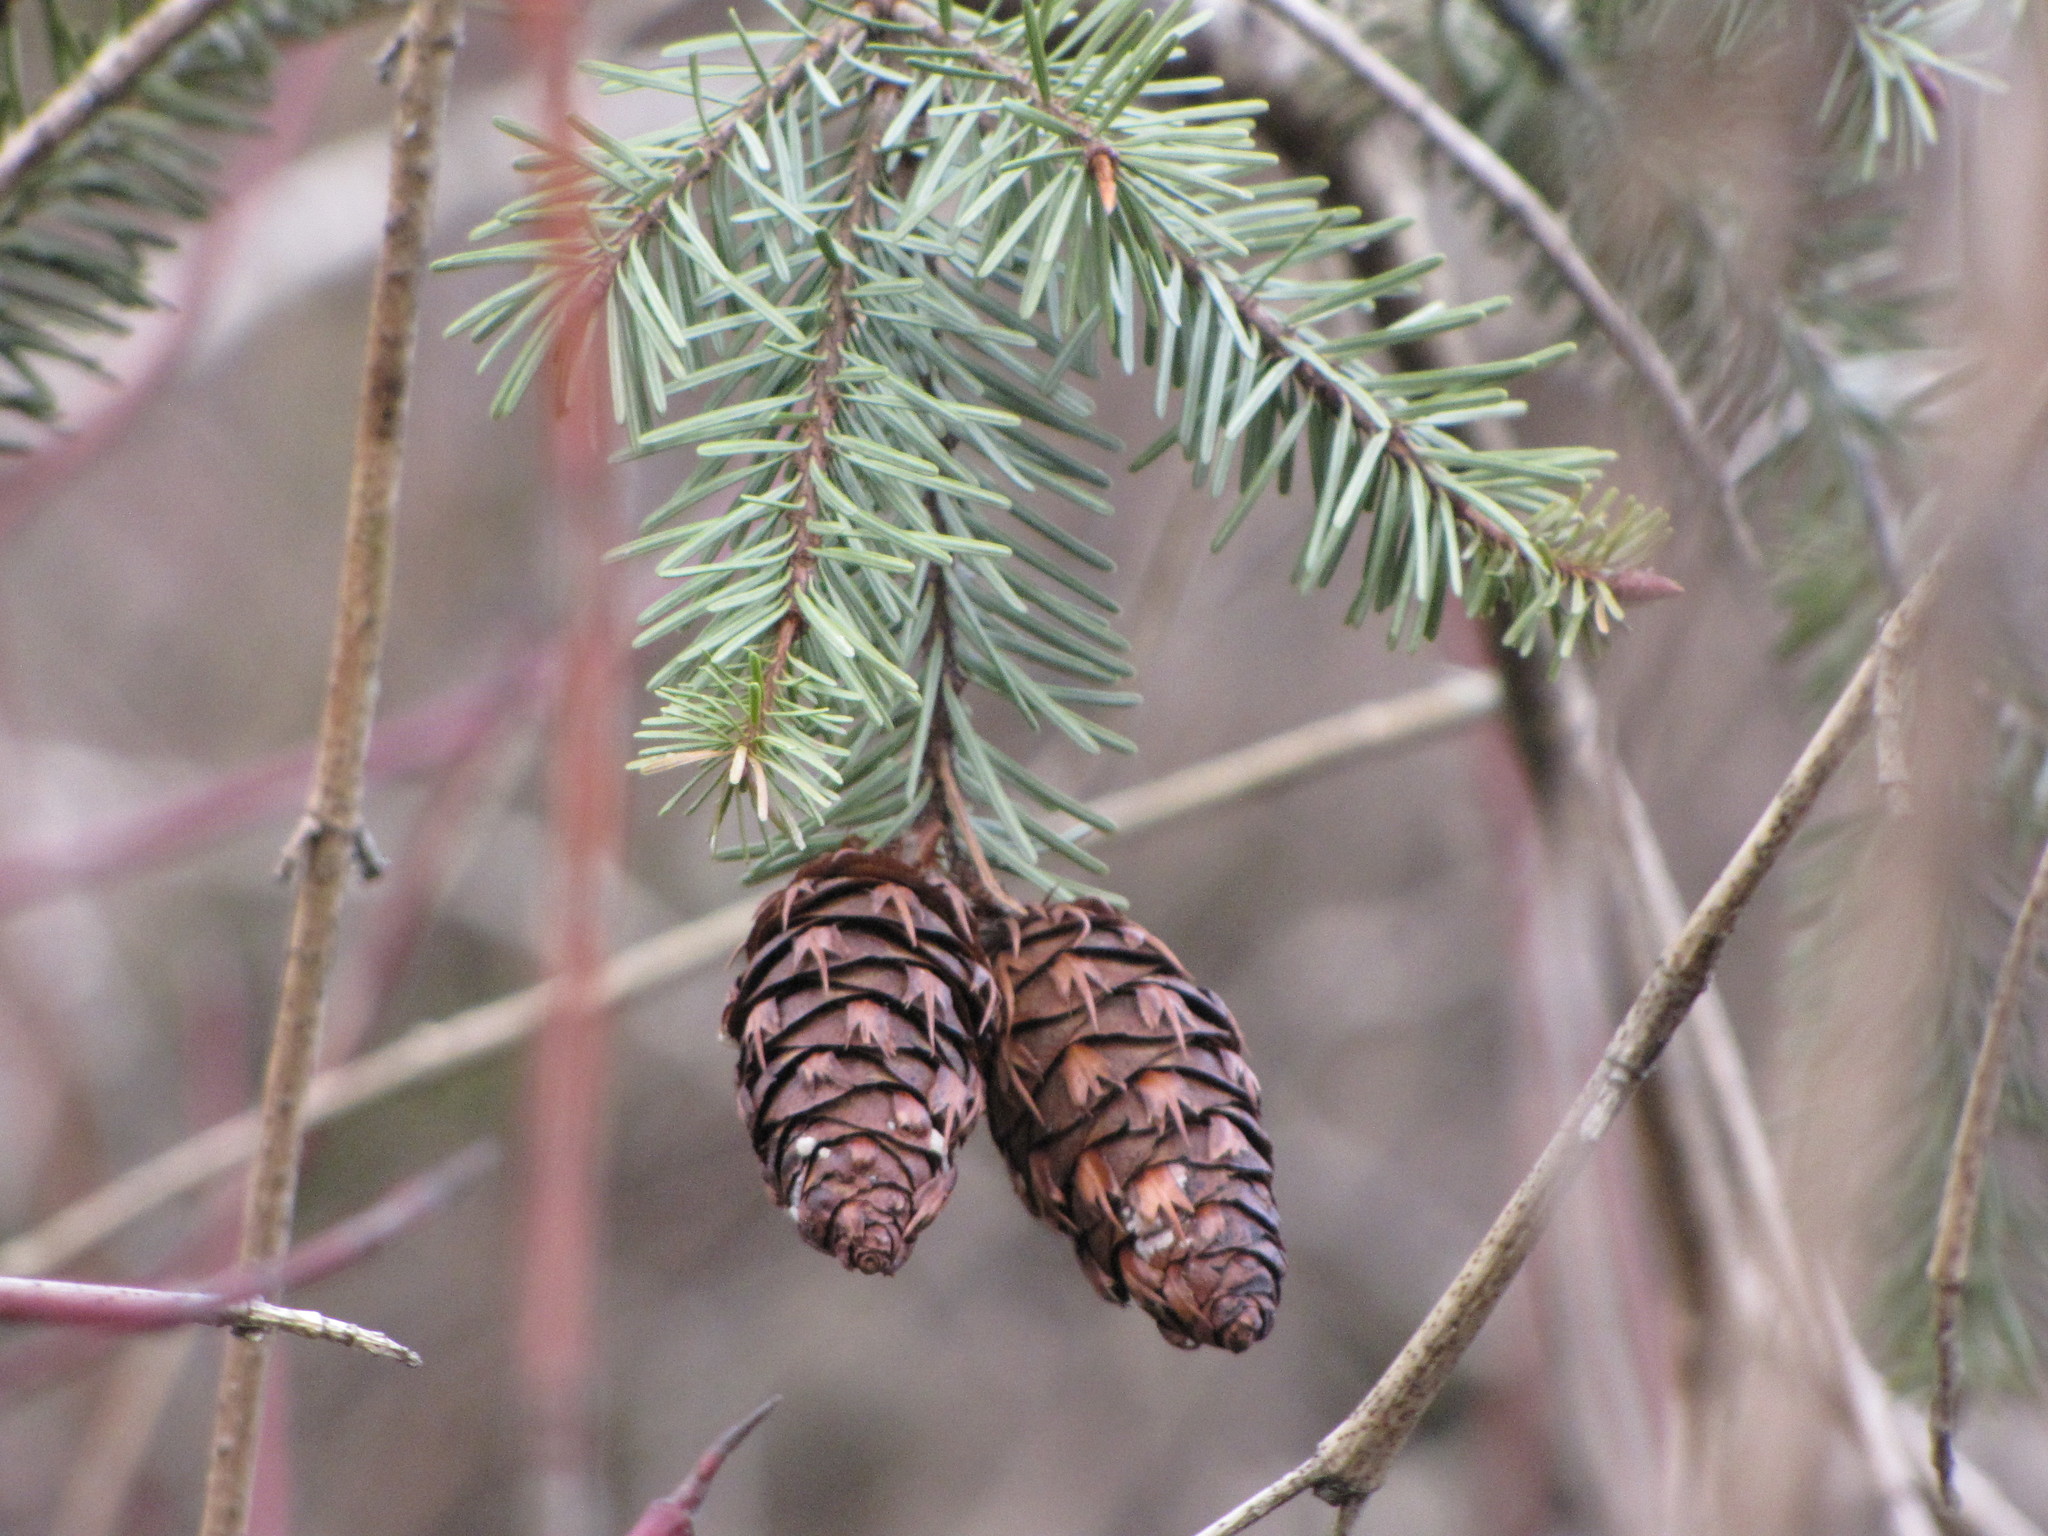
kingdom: Plantae
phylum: Tracheophyta
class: Pinopsida
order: Pinales
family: Pinaceae
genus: Pseudotsuga
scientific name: Pseudotsuga menziesii
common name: Douglas fir
